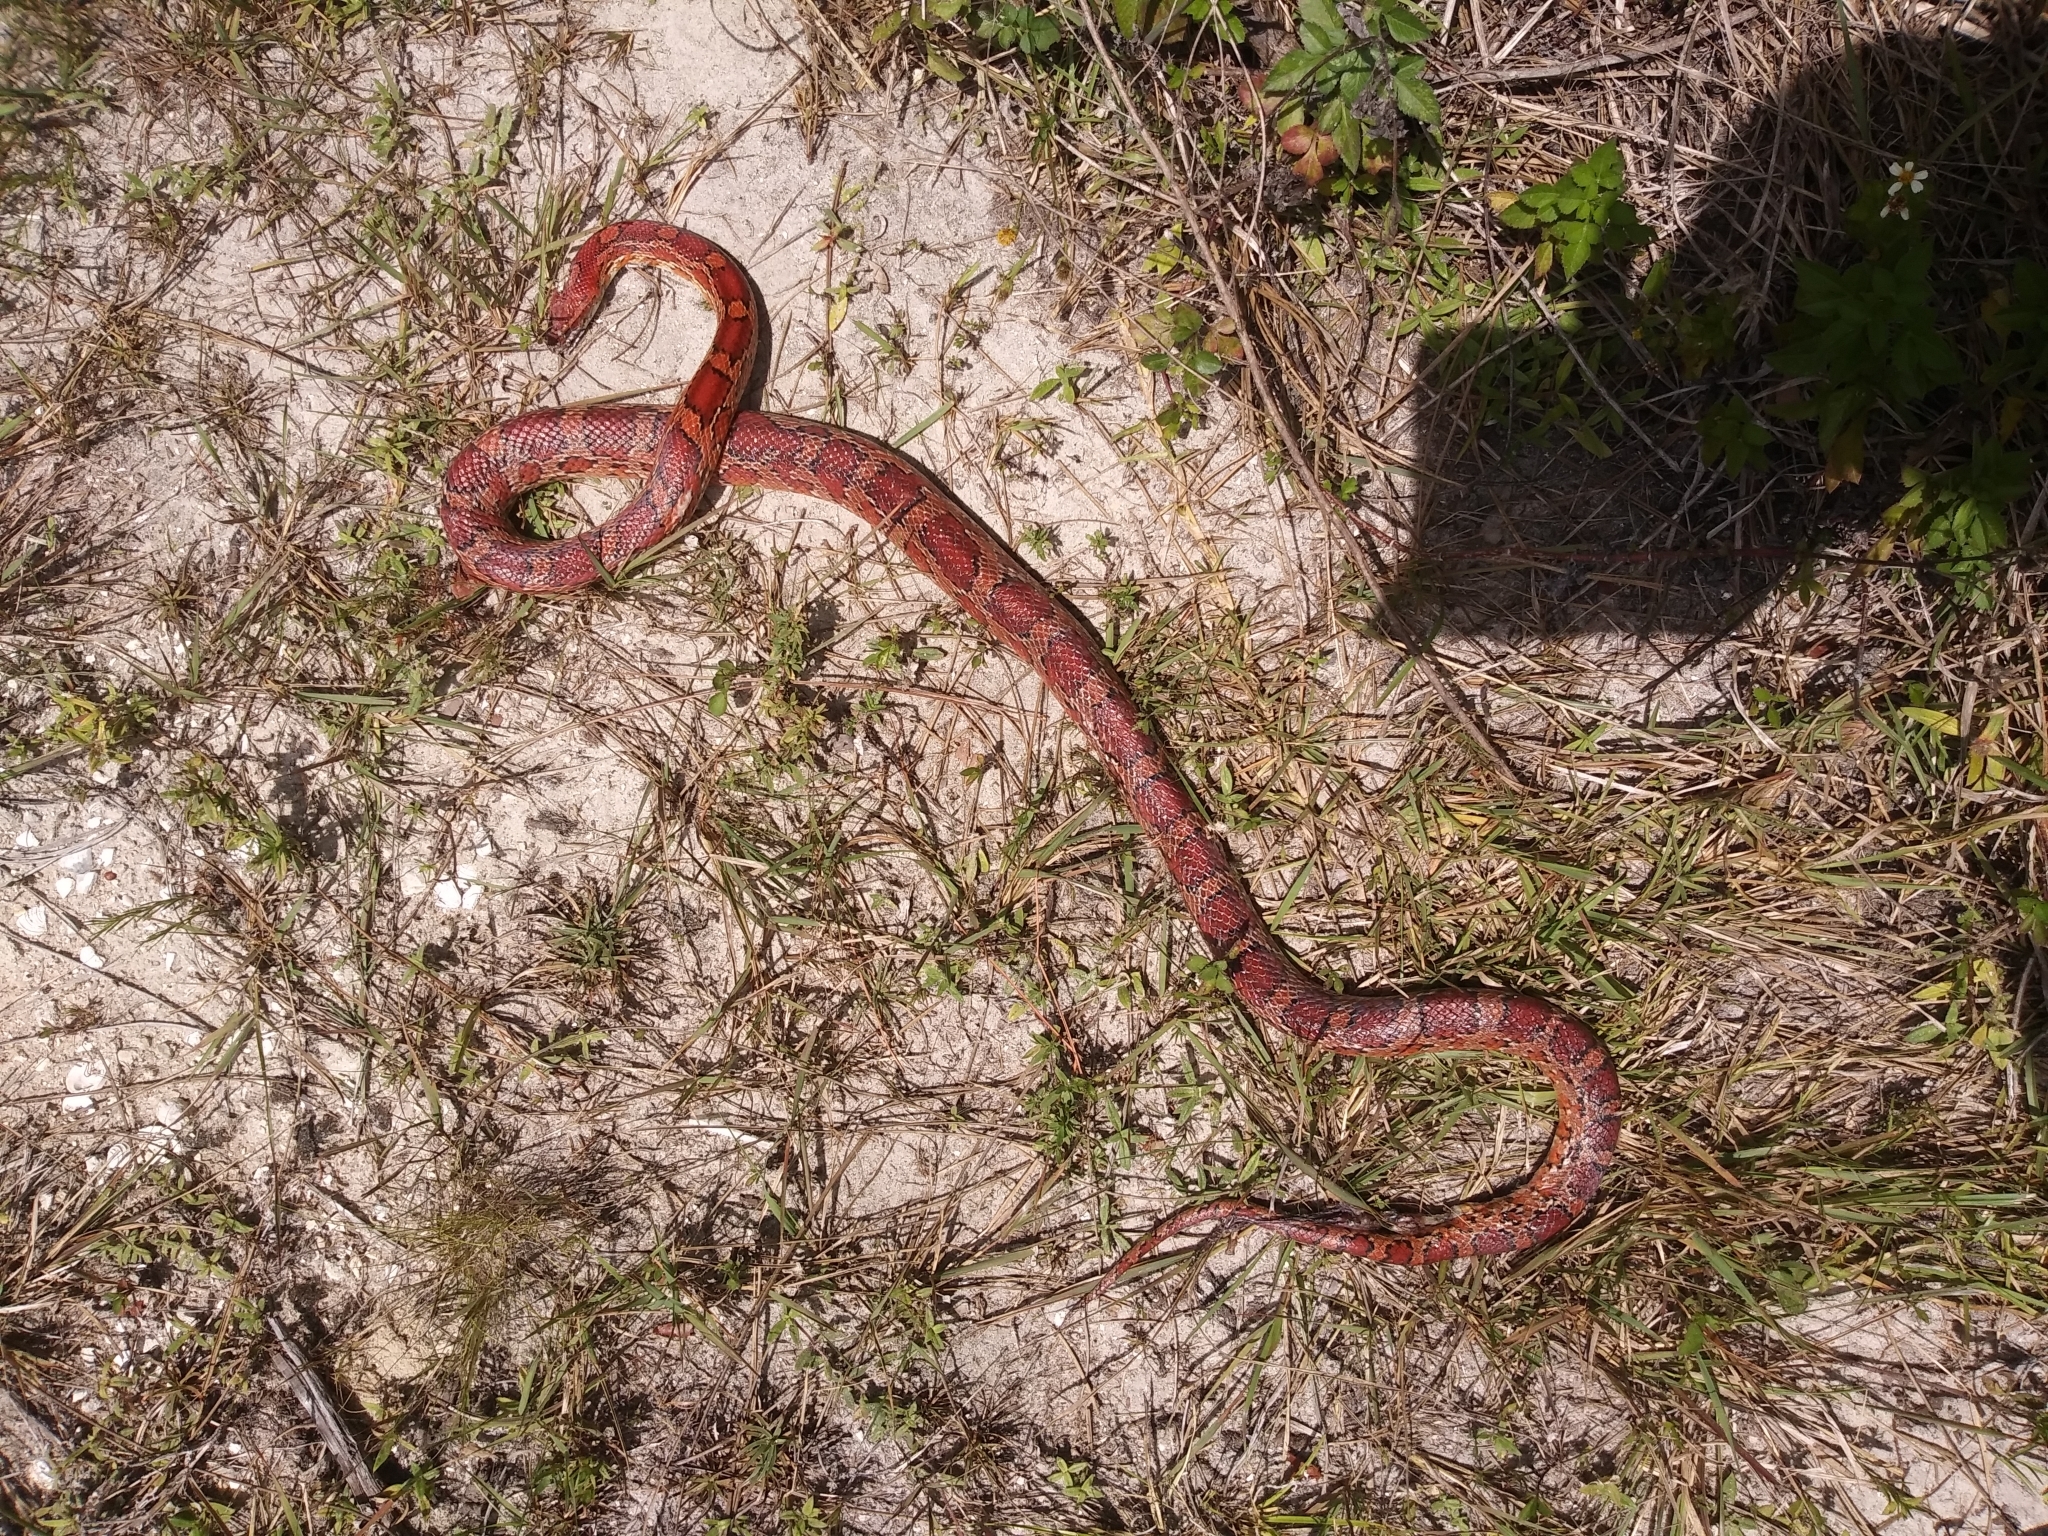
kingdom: Animalia
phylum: Chordata
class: Squamata
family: Colubridae
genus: Pantherophis
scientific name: Pantherophis guttatus
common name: Red cornsnake
